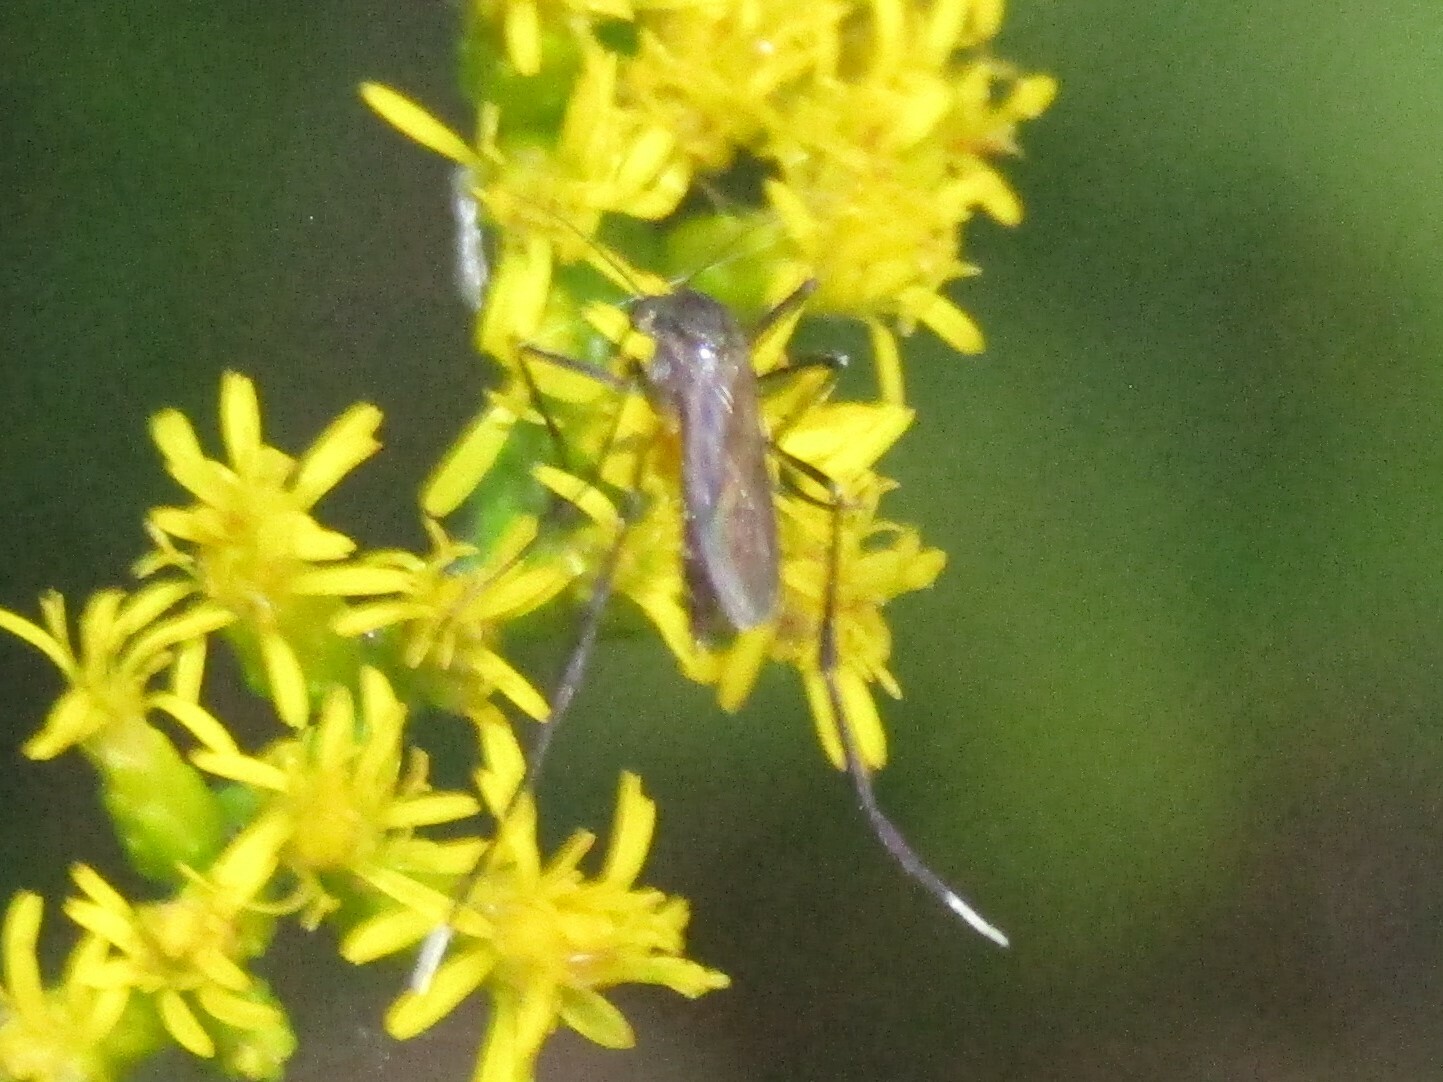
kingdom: Animalia
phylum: Arthropoda
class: Insecta
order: Diptera
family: Culicidae
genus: Psorophora
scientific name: Psorophora ferox
